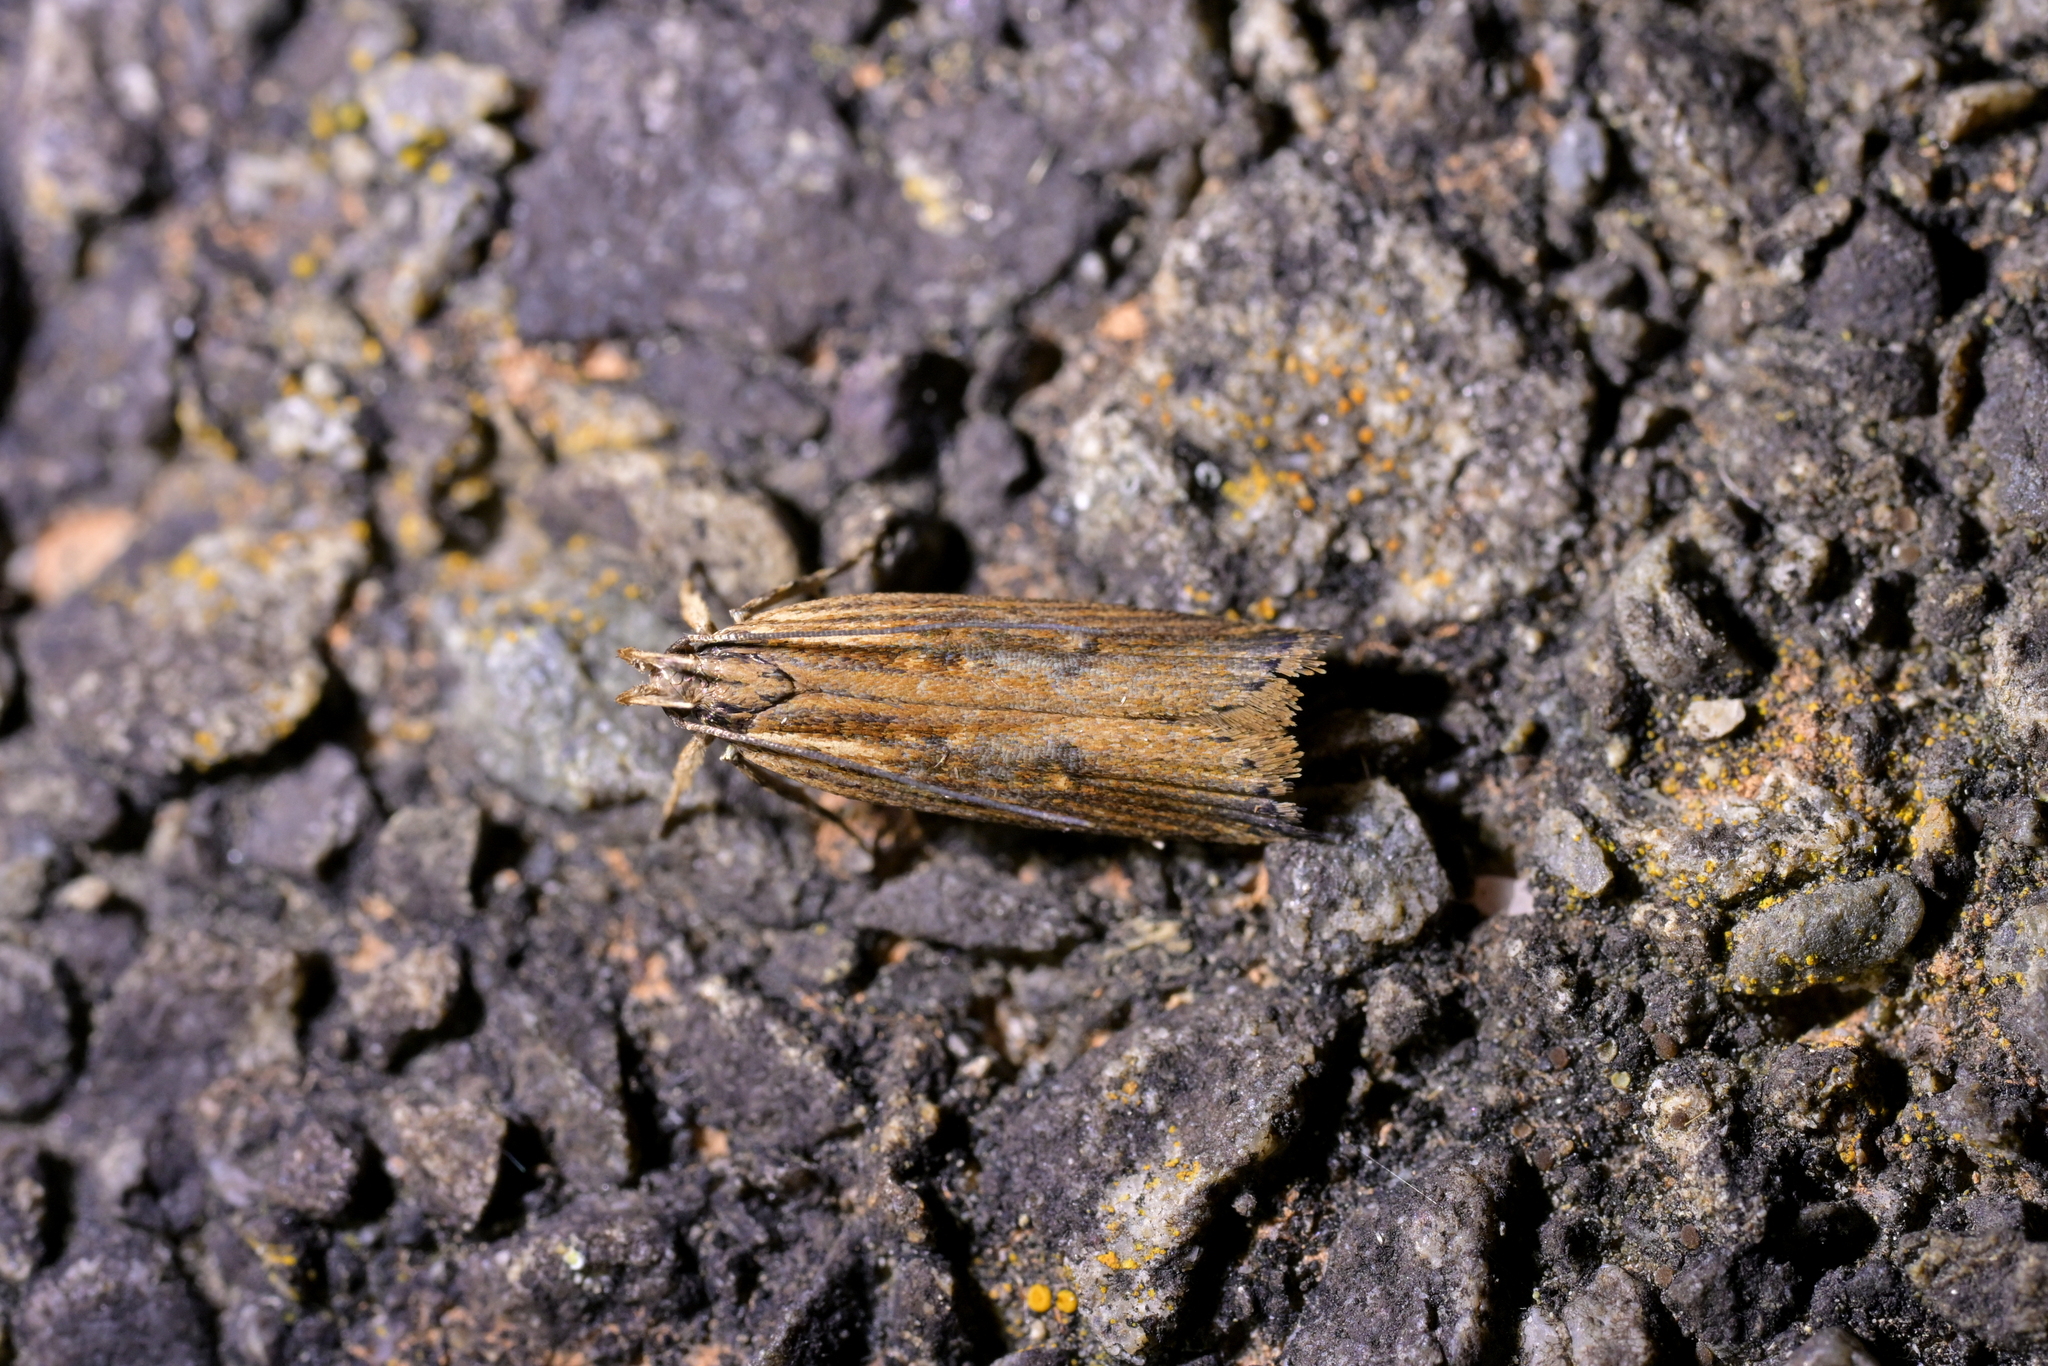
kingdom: Animalia
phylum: Arthropoda
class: Insecta
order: Lepidoptera
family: Gelechiidae
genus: Helcystogramma
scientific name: Helcystogramma phryganitis
